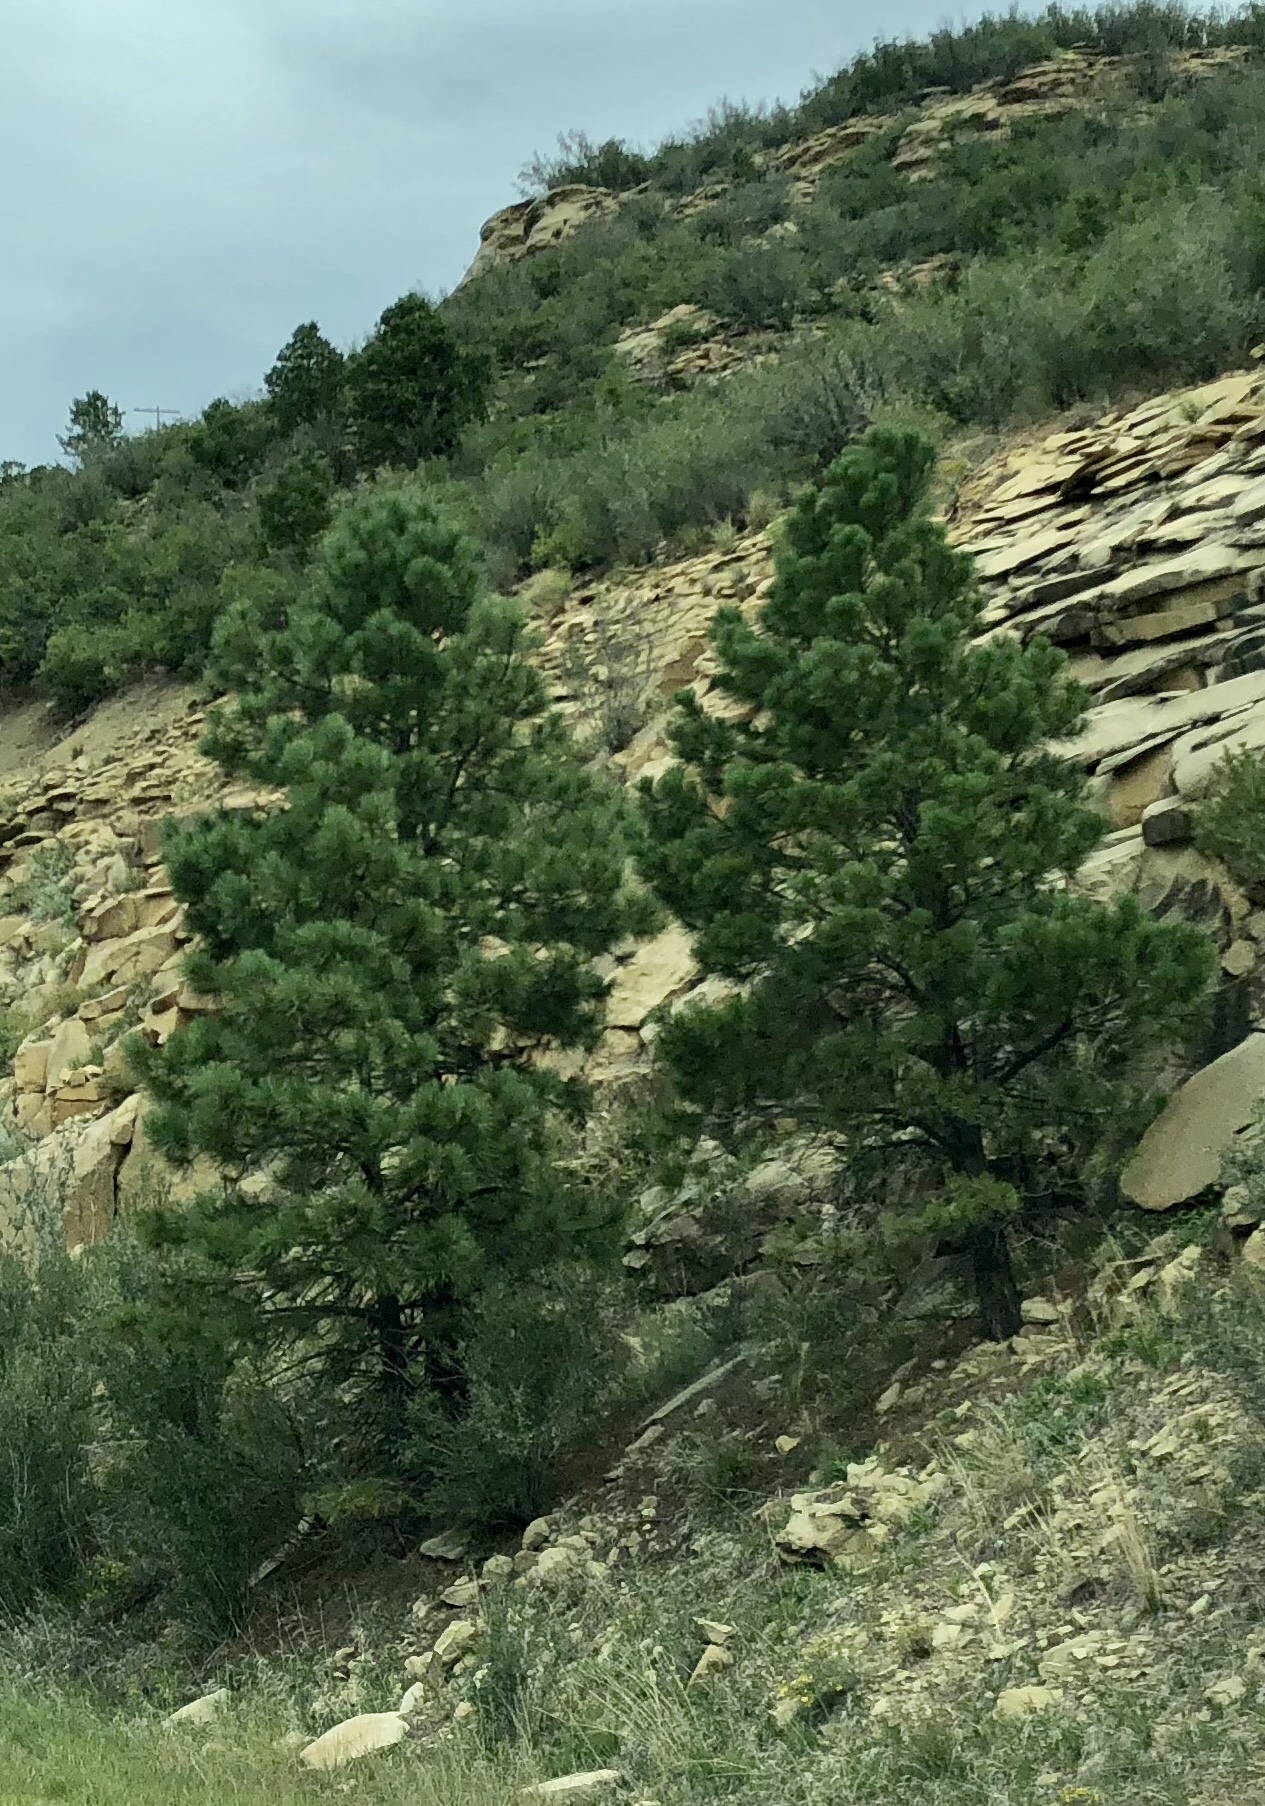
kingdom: Plantae
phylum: Tracheophyta
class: Pinopsida
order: Pinales
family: Pinaceae
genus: Pinus
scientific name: Pinus ponderosa
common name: Western yellow-pine
